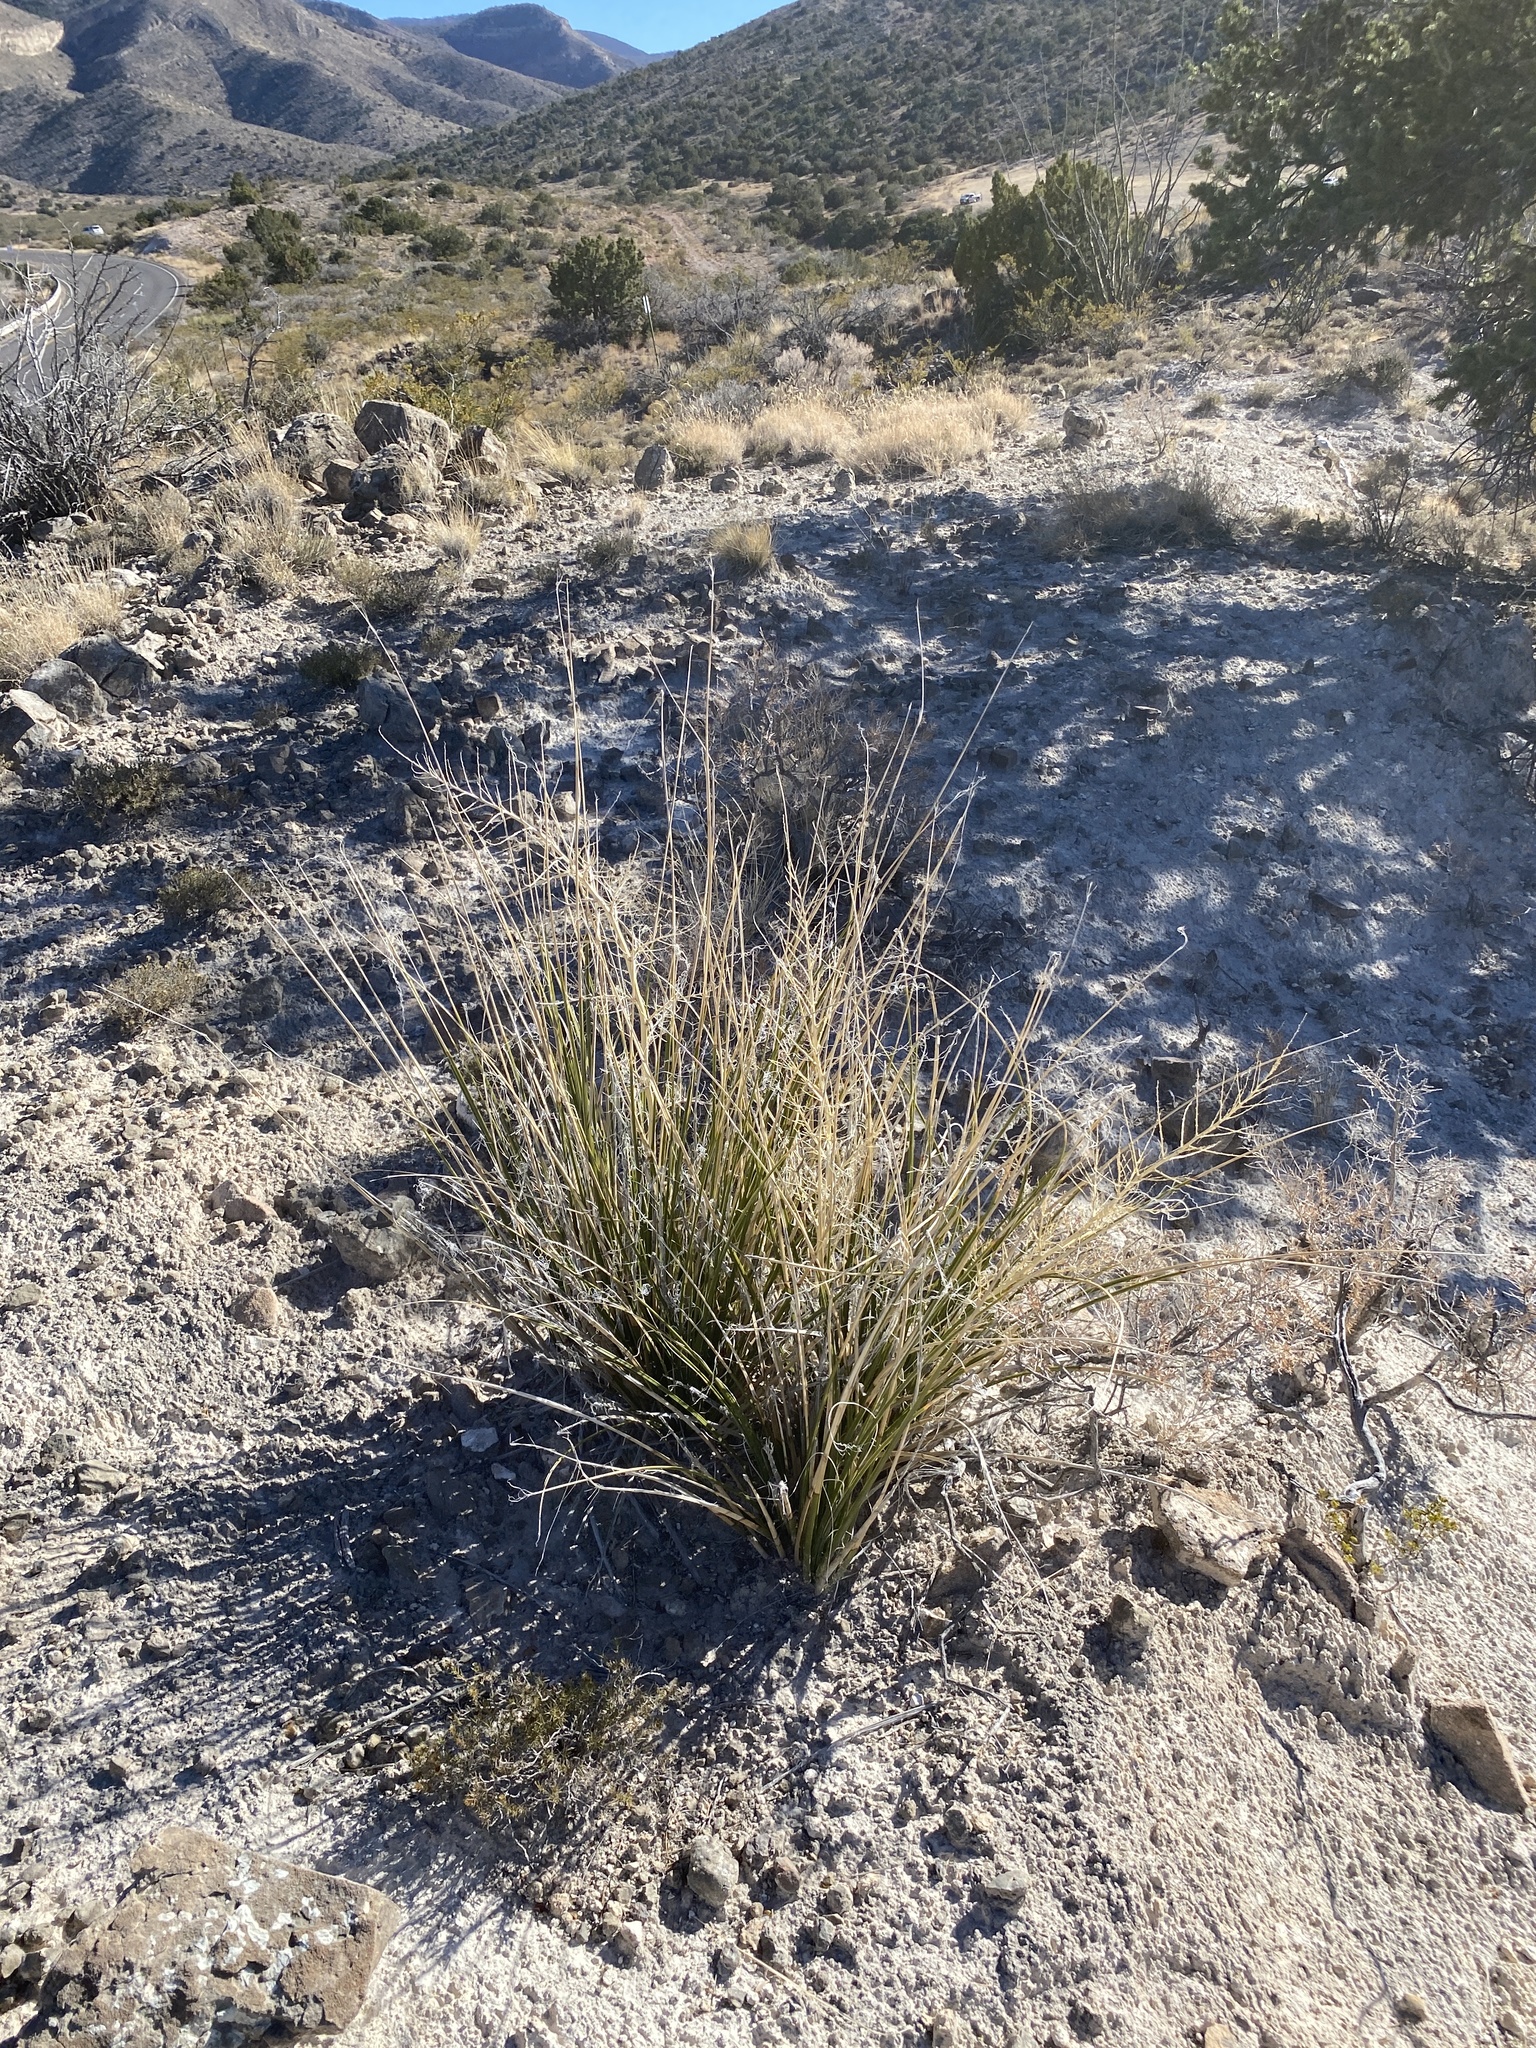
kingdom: Plantae
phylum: Tracheophyta
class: Liliopsida
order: Asparagales
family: Asparagaceae
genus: Nolina
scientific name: Nolina microcarpa
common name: Bear-grass
